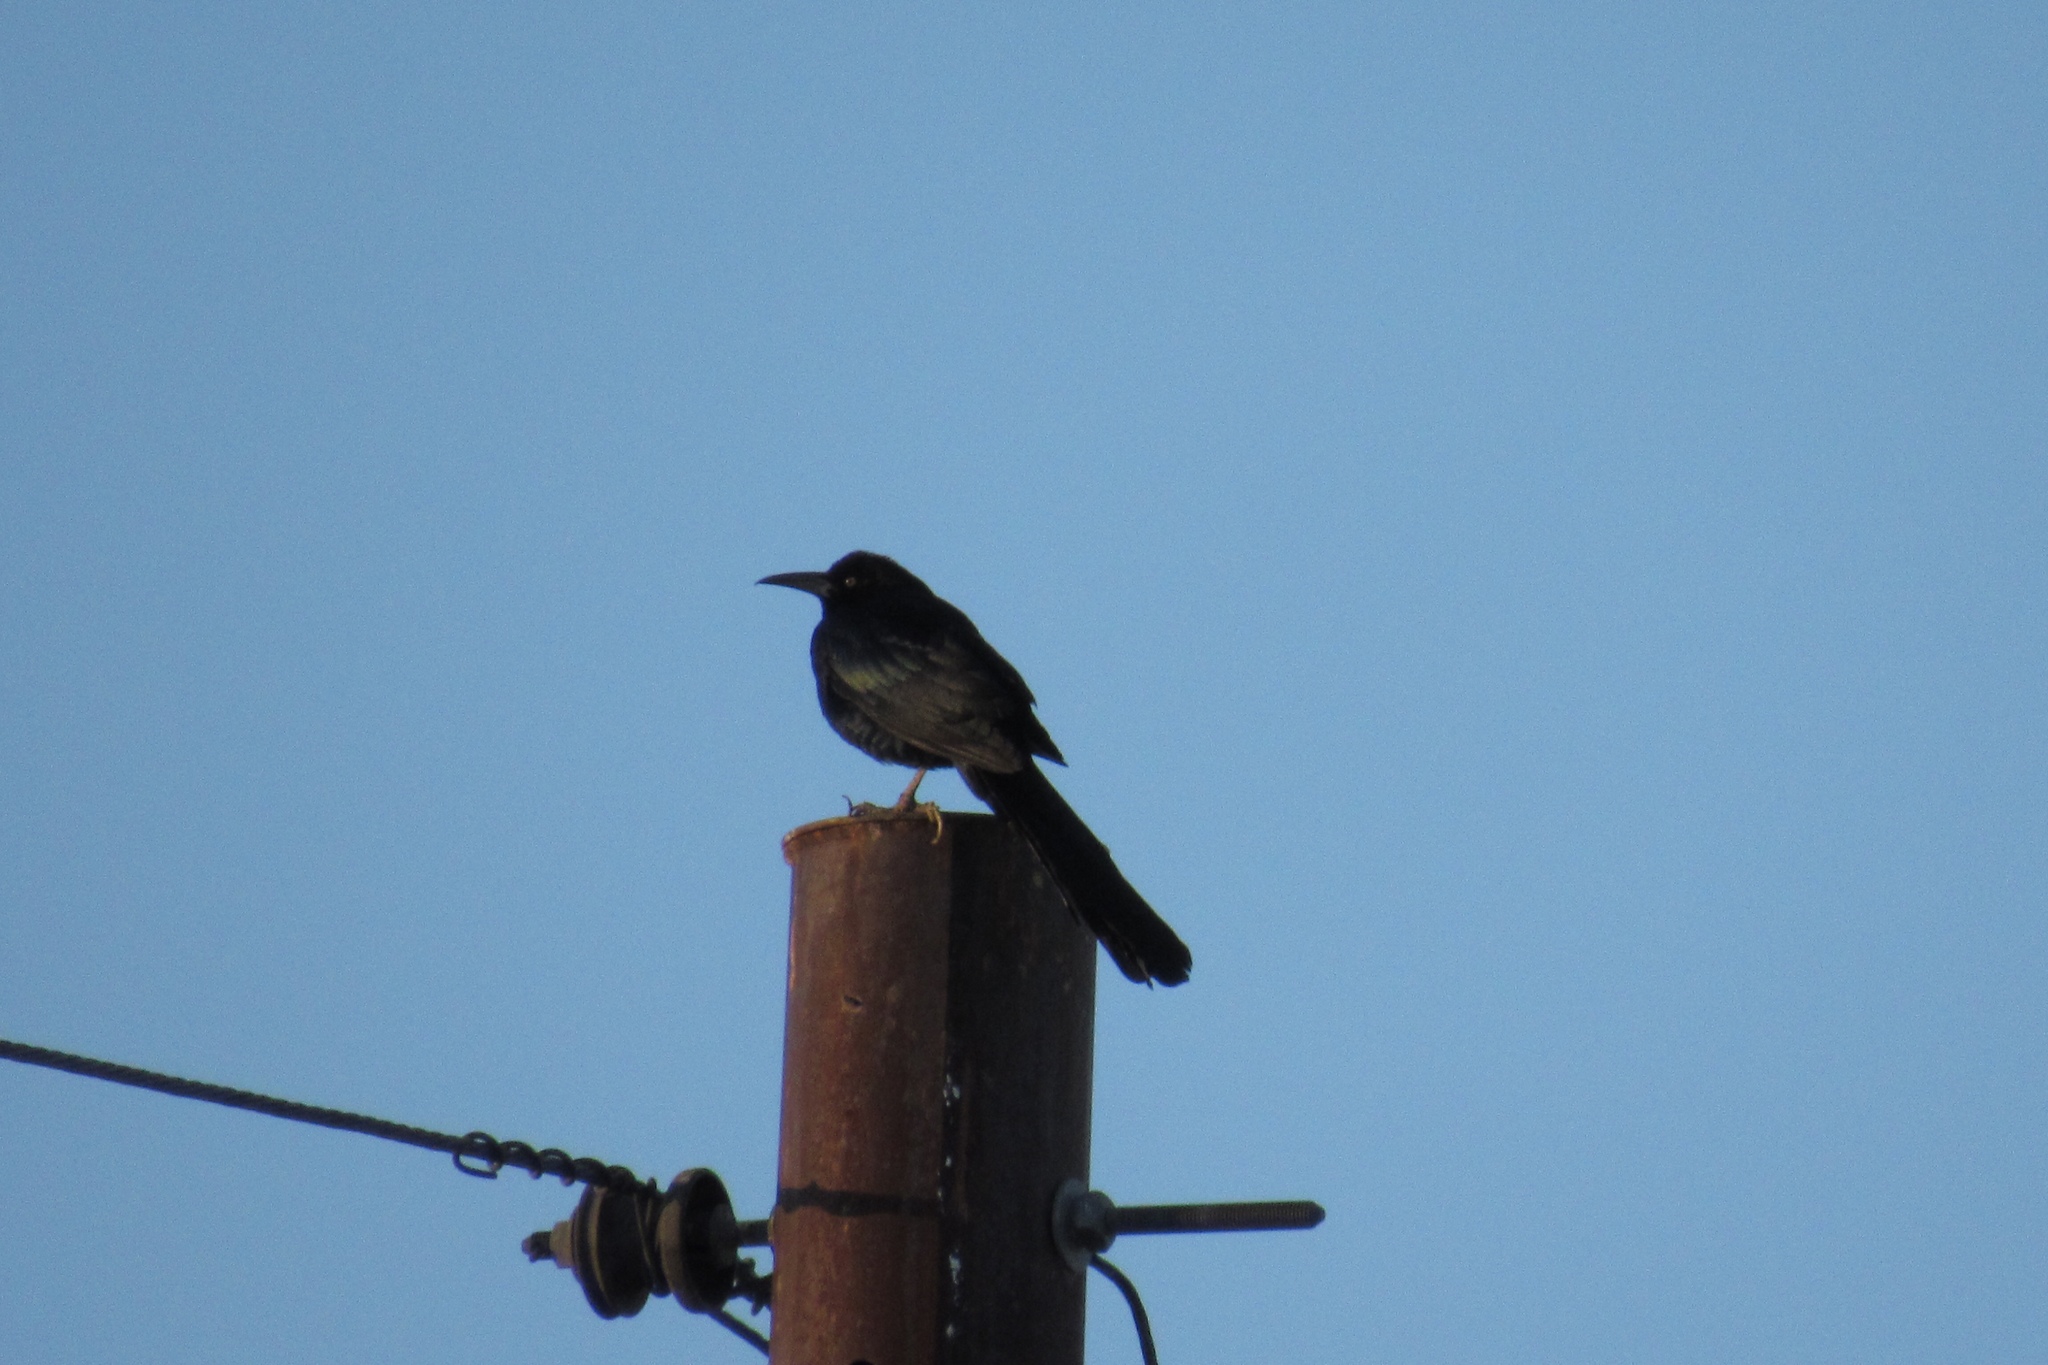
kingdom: Animalia
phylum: Chordata
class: Aves
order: Passeriformes
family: Icteridae
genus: Quiscalus
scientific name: Quiscalus mexicanus
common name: Great-tailed grackle
